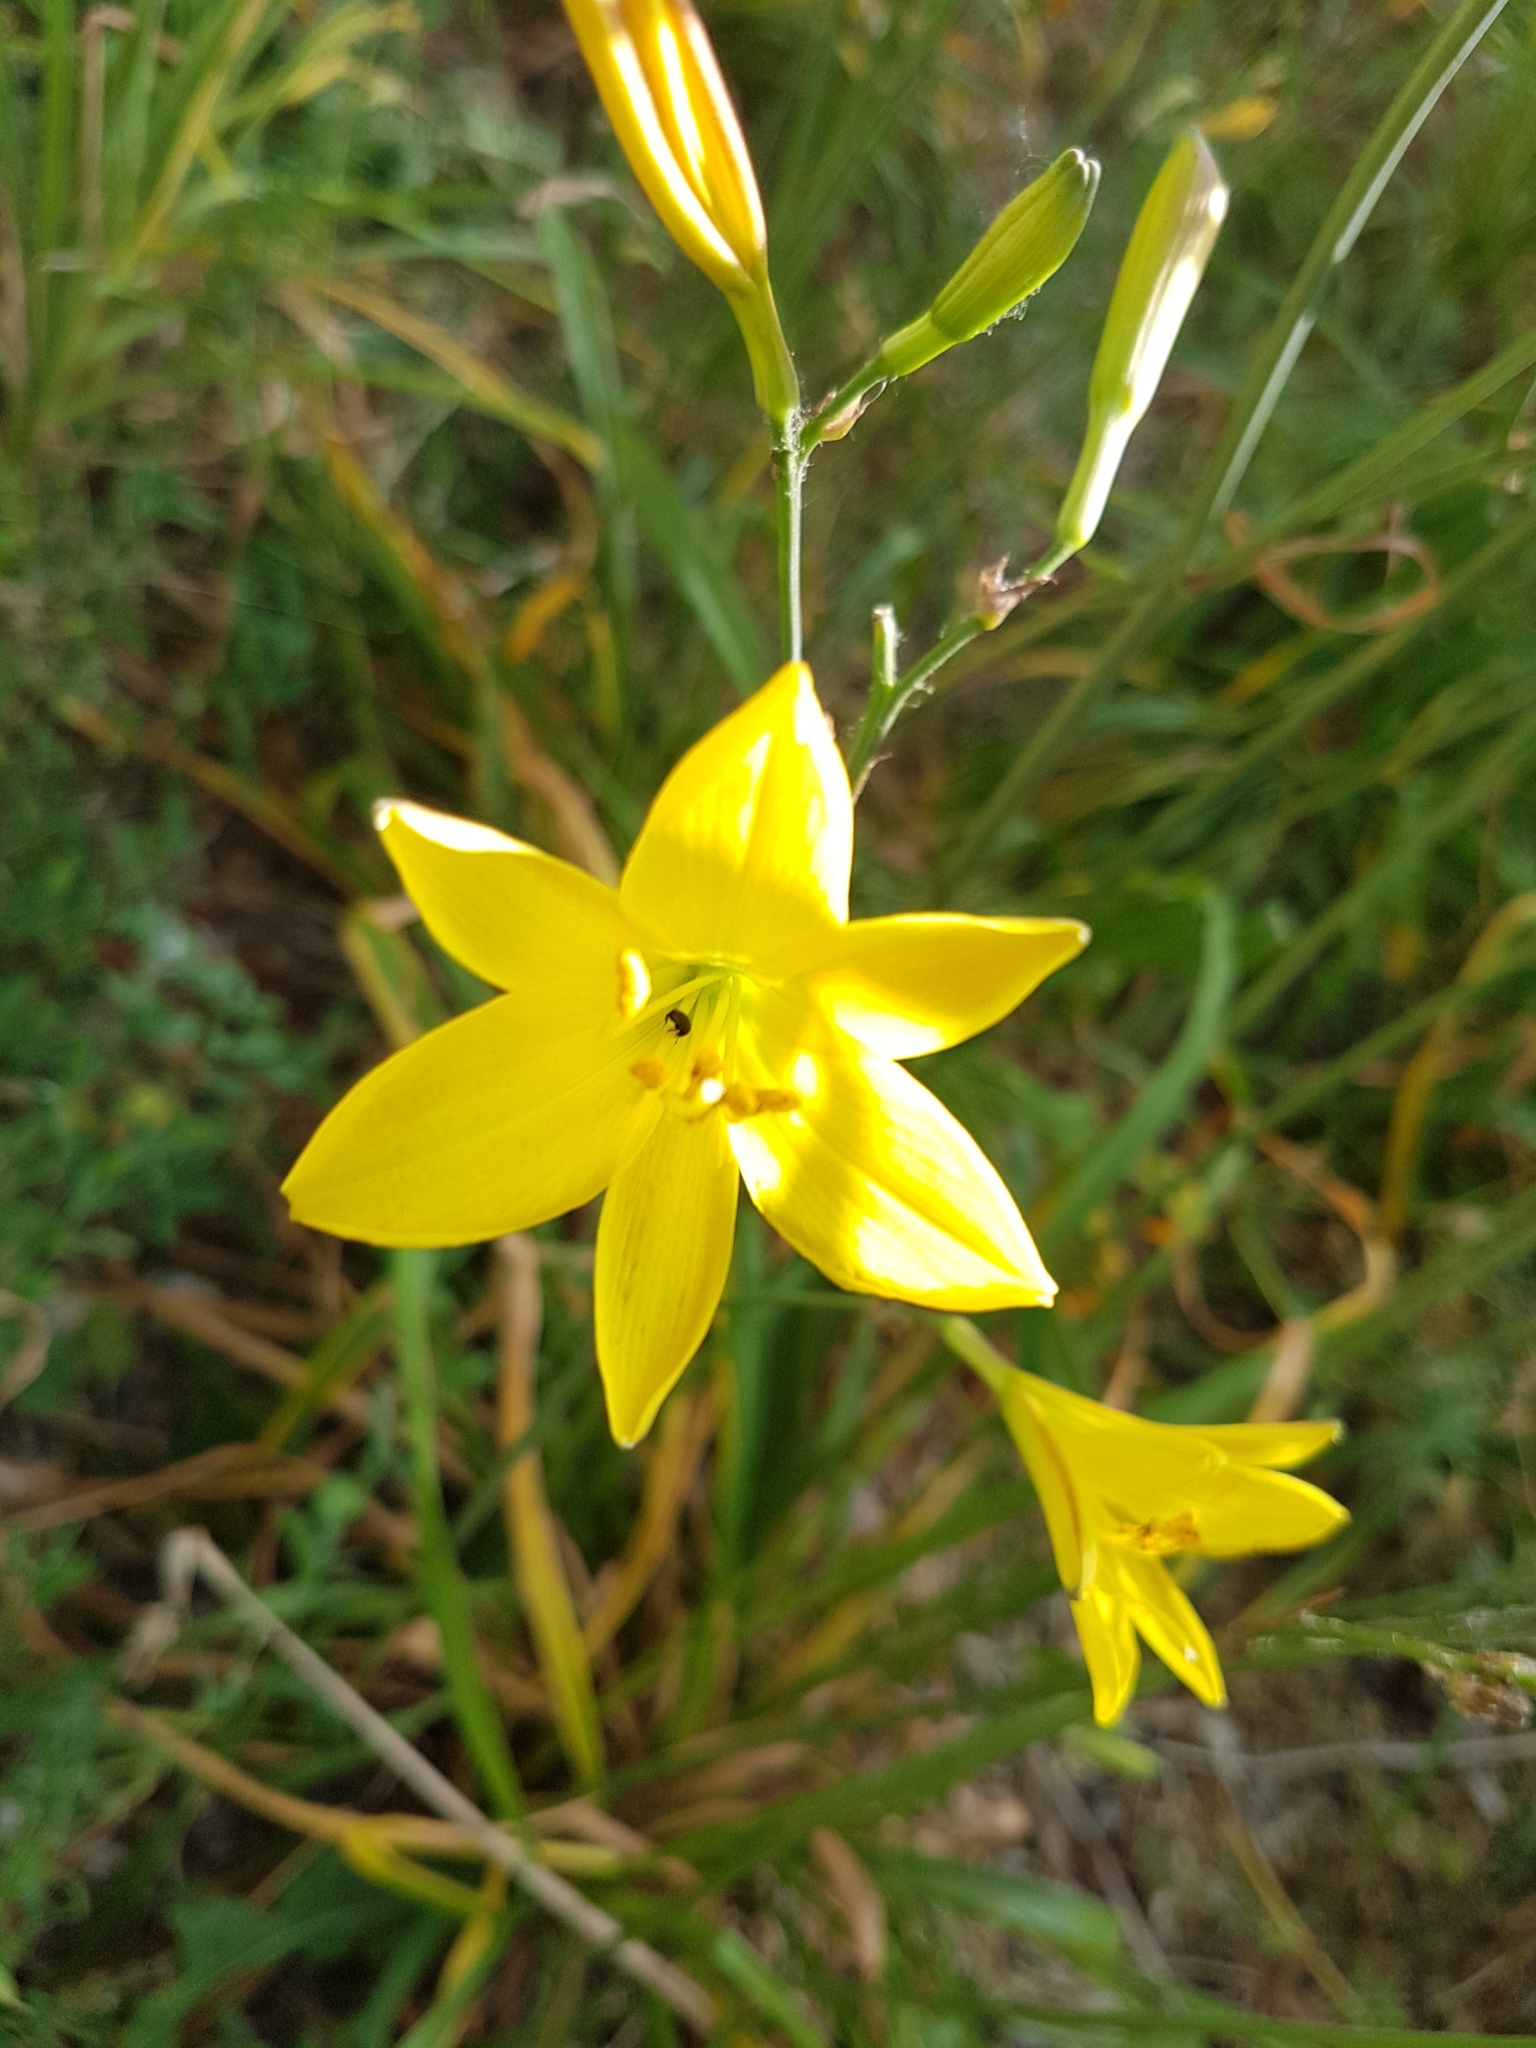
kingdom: Plantae
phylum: Tracheophyta
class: Liliopsida
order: Asparagales
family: Asphodelaceae
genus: Hemerocallis
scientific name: Hemerocallis lilioasphodelus
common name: Yellow day-lily
